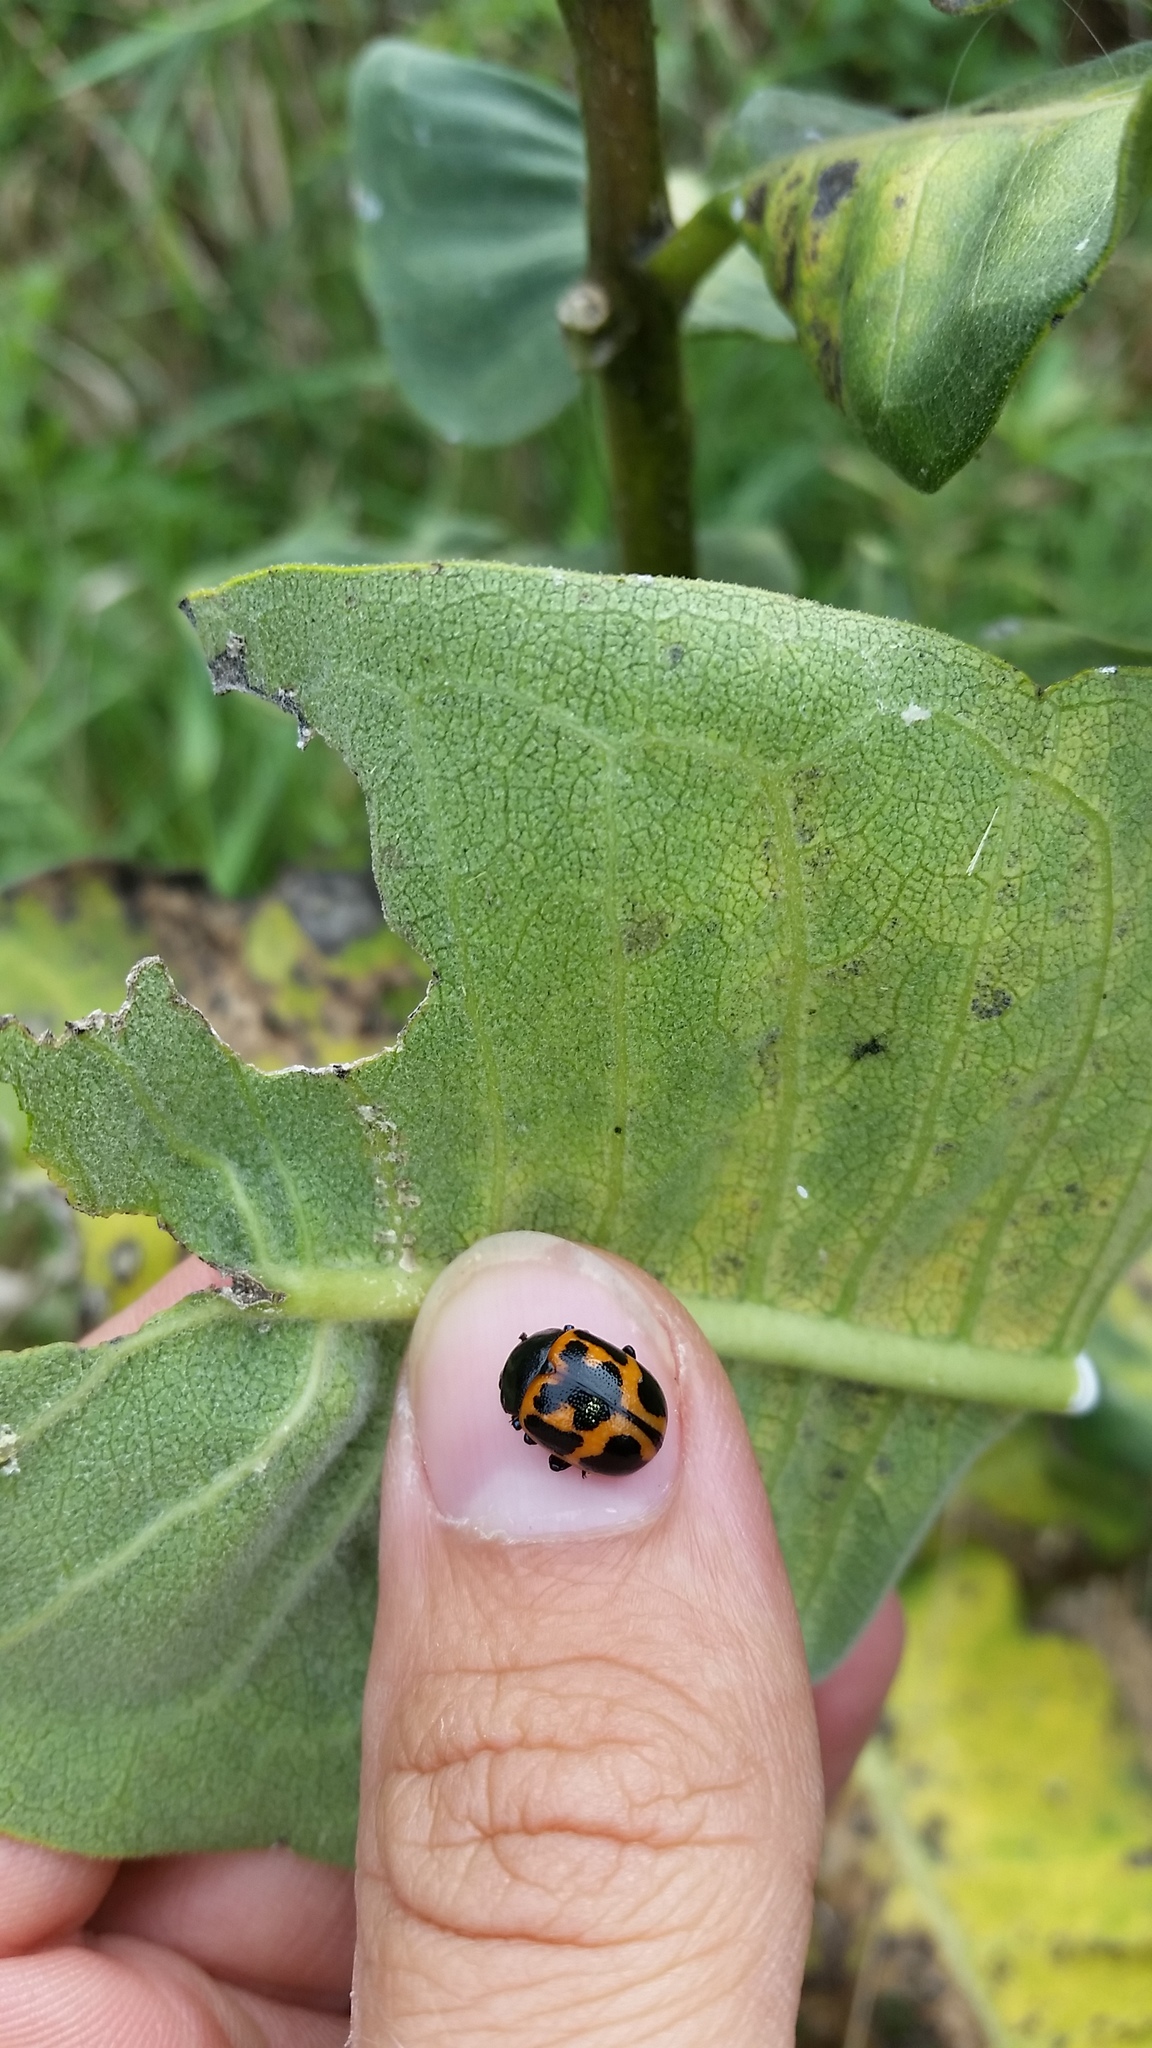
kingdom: Animalia
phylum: Arthropoda
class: Insecta
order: Coleoptera
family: Chrysomelidae
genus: Labidomera
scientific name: Labidomera clivicollis
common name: Swamp milkweed leaf beetle
